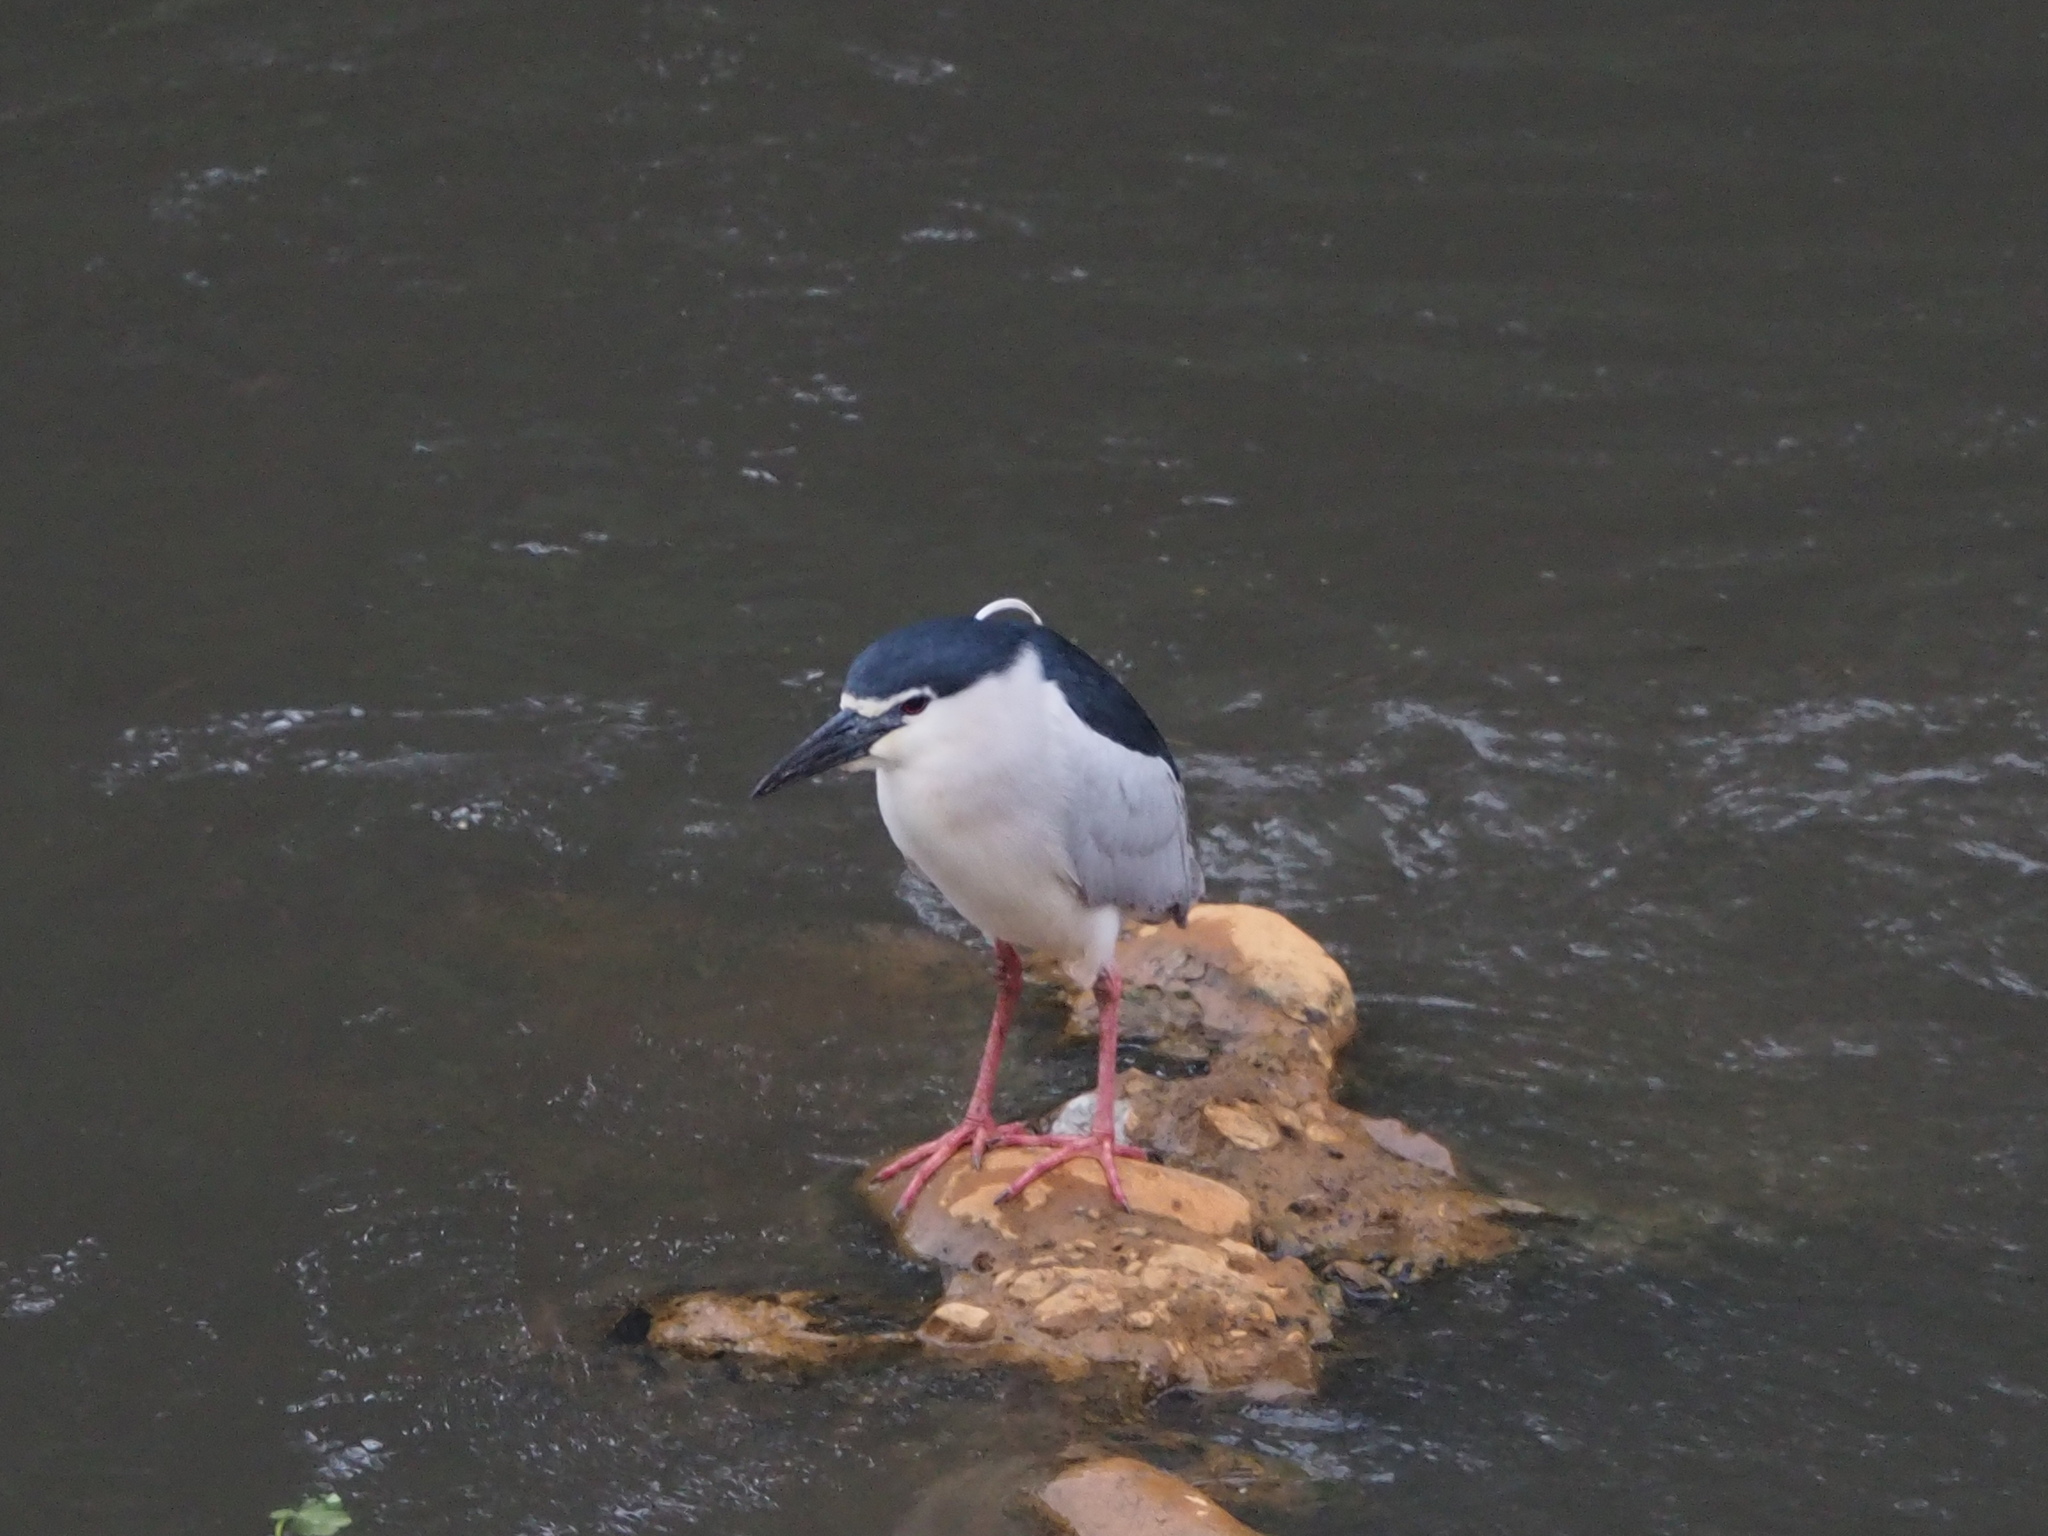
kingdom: Animalia
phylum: Chordata
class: Aves
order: Pelecaniformes
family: Ardeidae
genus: Nycticorax
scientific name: Nycticorax nycticorax
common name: Black-crowned night heron
